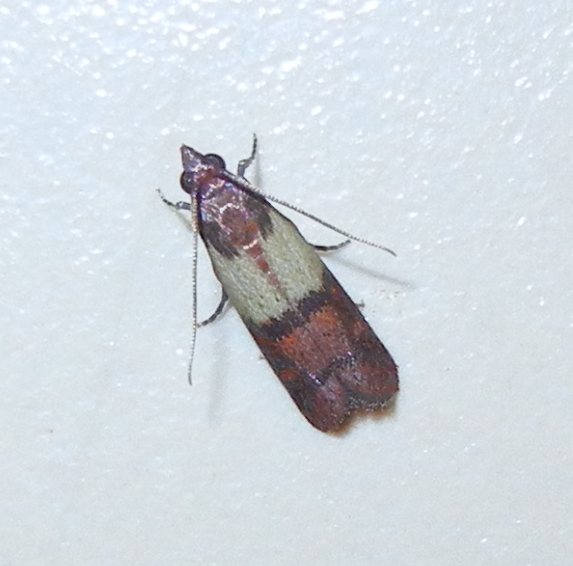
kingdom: Animalia
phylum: Arthropoda
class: Insecta
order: Lepidoptera
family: Pyralidae
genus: Plodia
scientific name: Plodia interpunctella
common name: Indian meal moth
